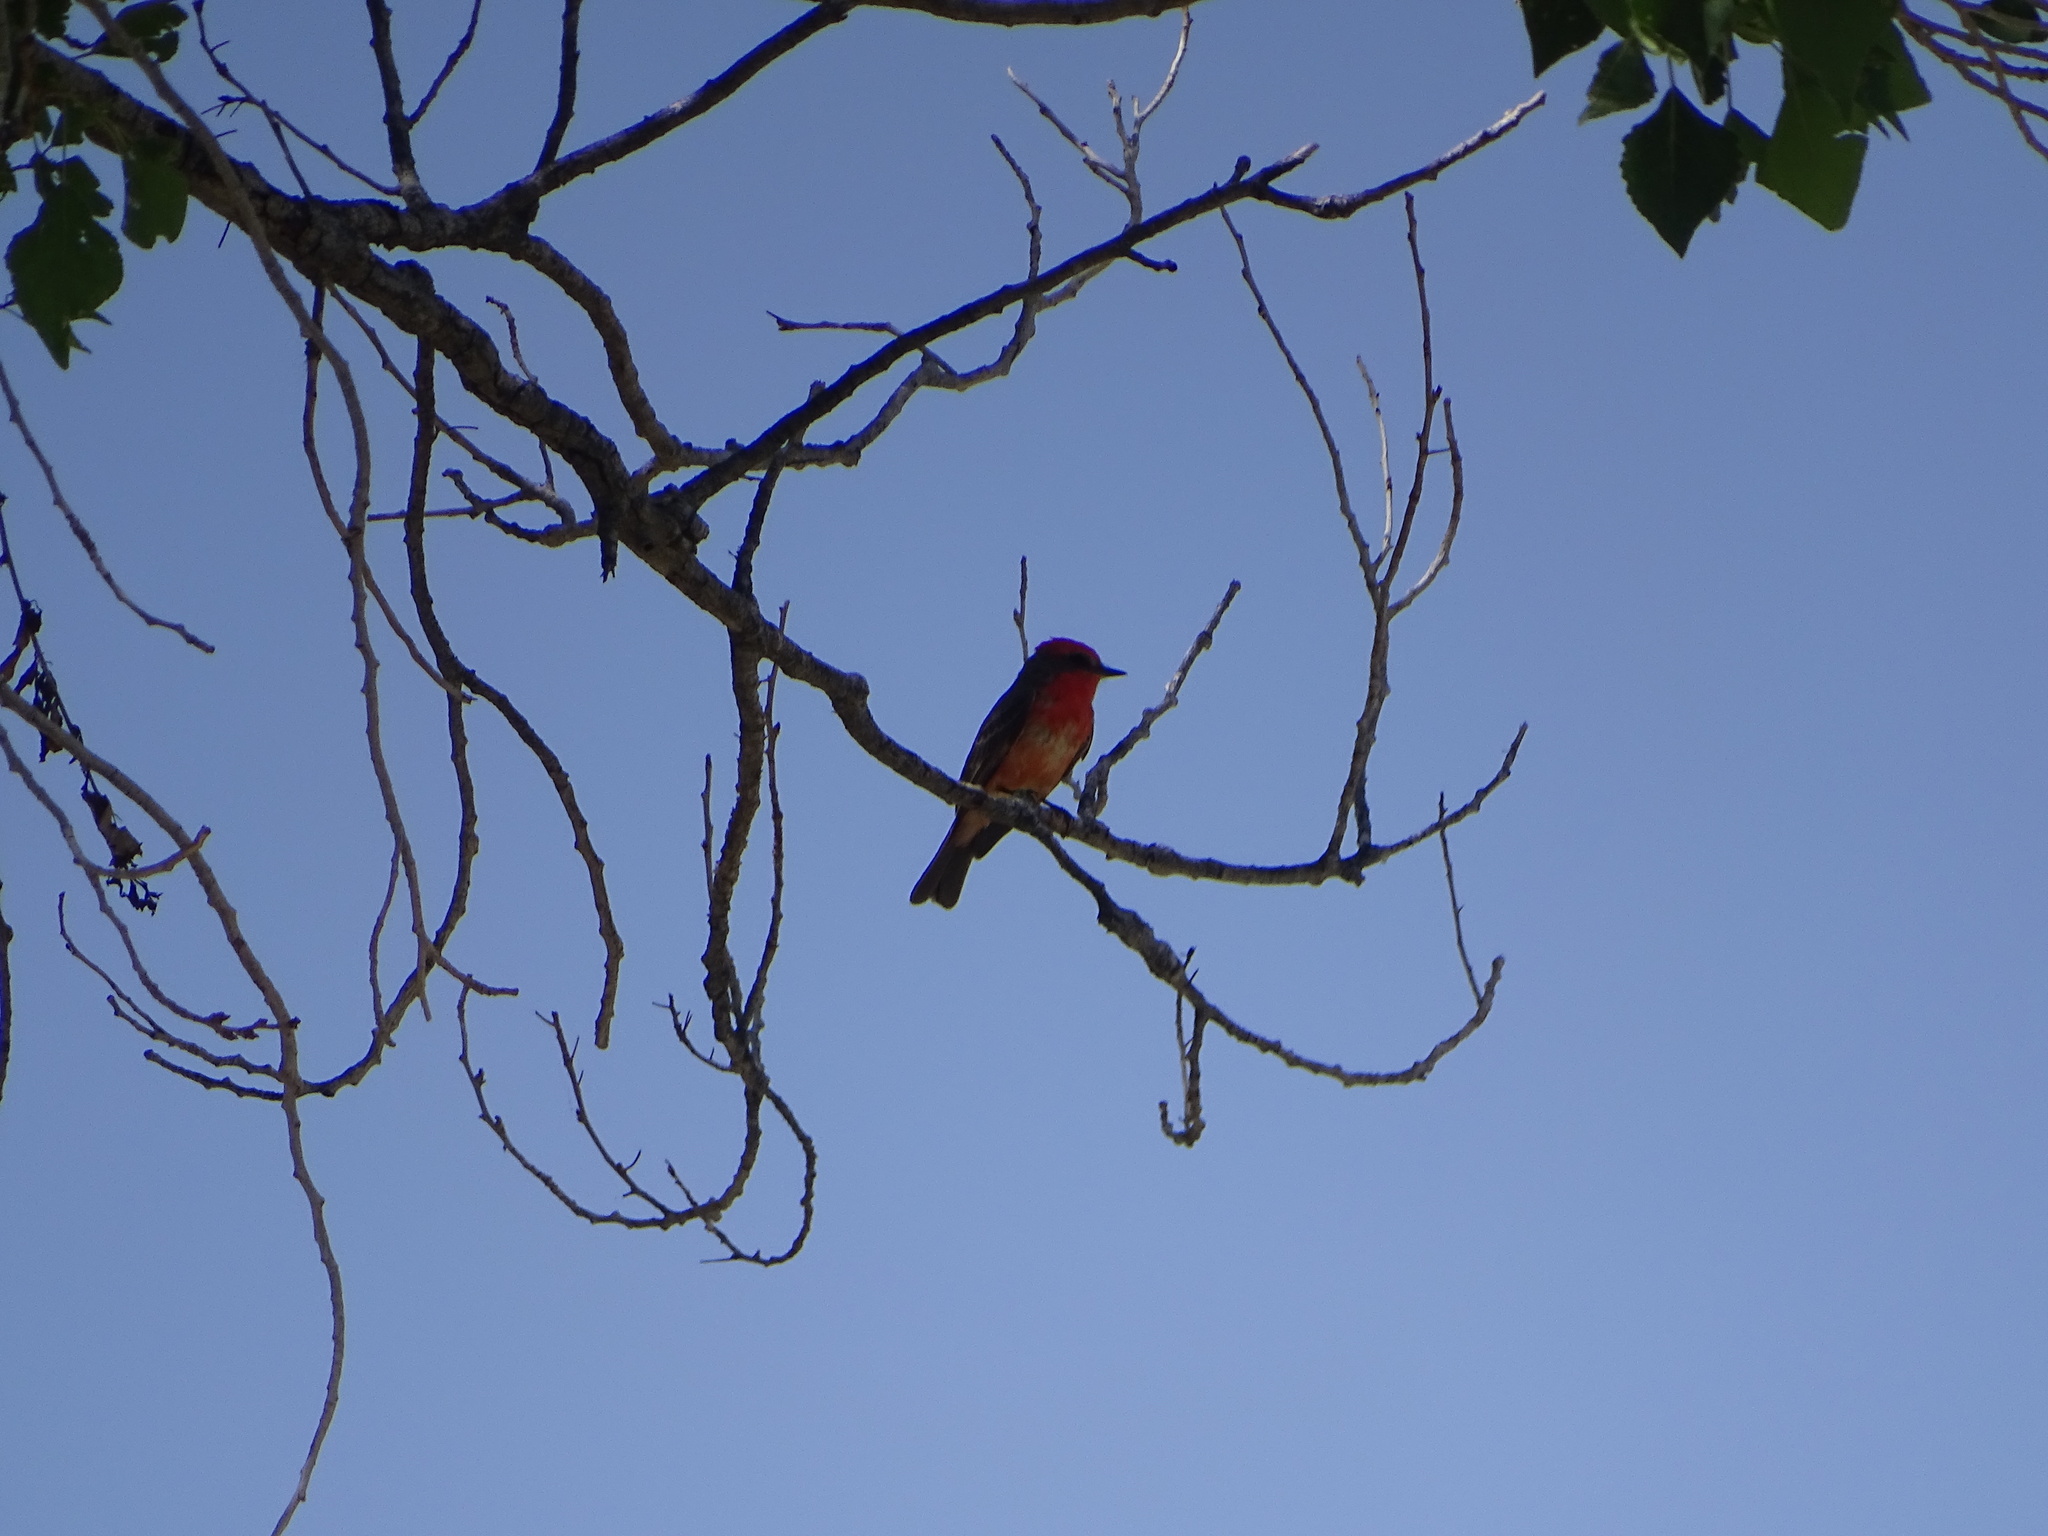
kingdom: Animalia
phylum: Chordata
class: Aves
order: Passeriformes
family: Tyrannidae
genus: Pyrocephalus
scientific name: Pyrocephalus rubinus
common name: Vermilion flycatcher
